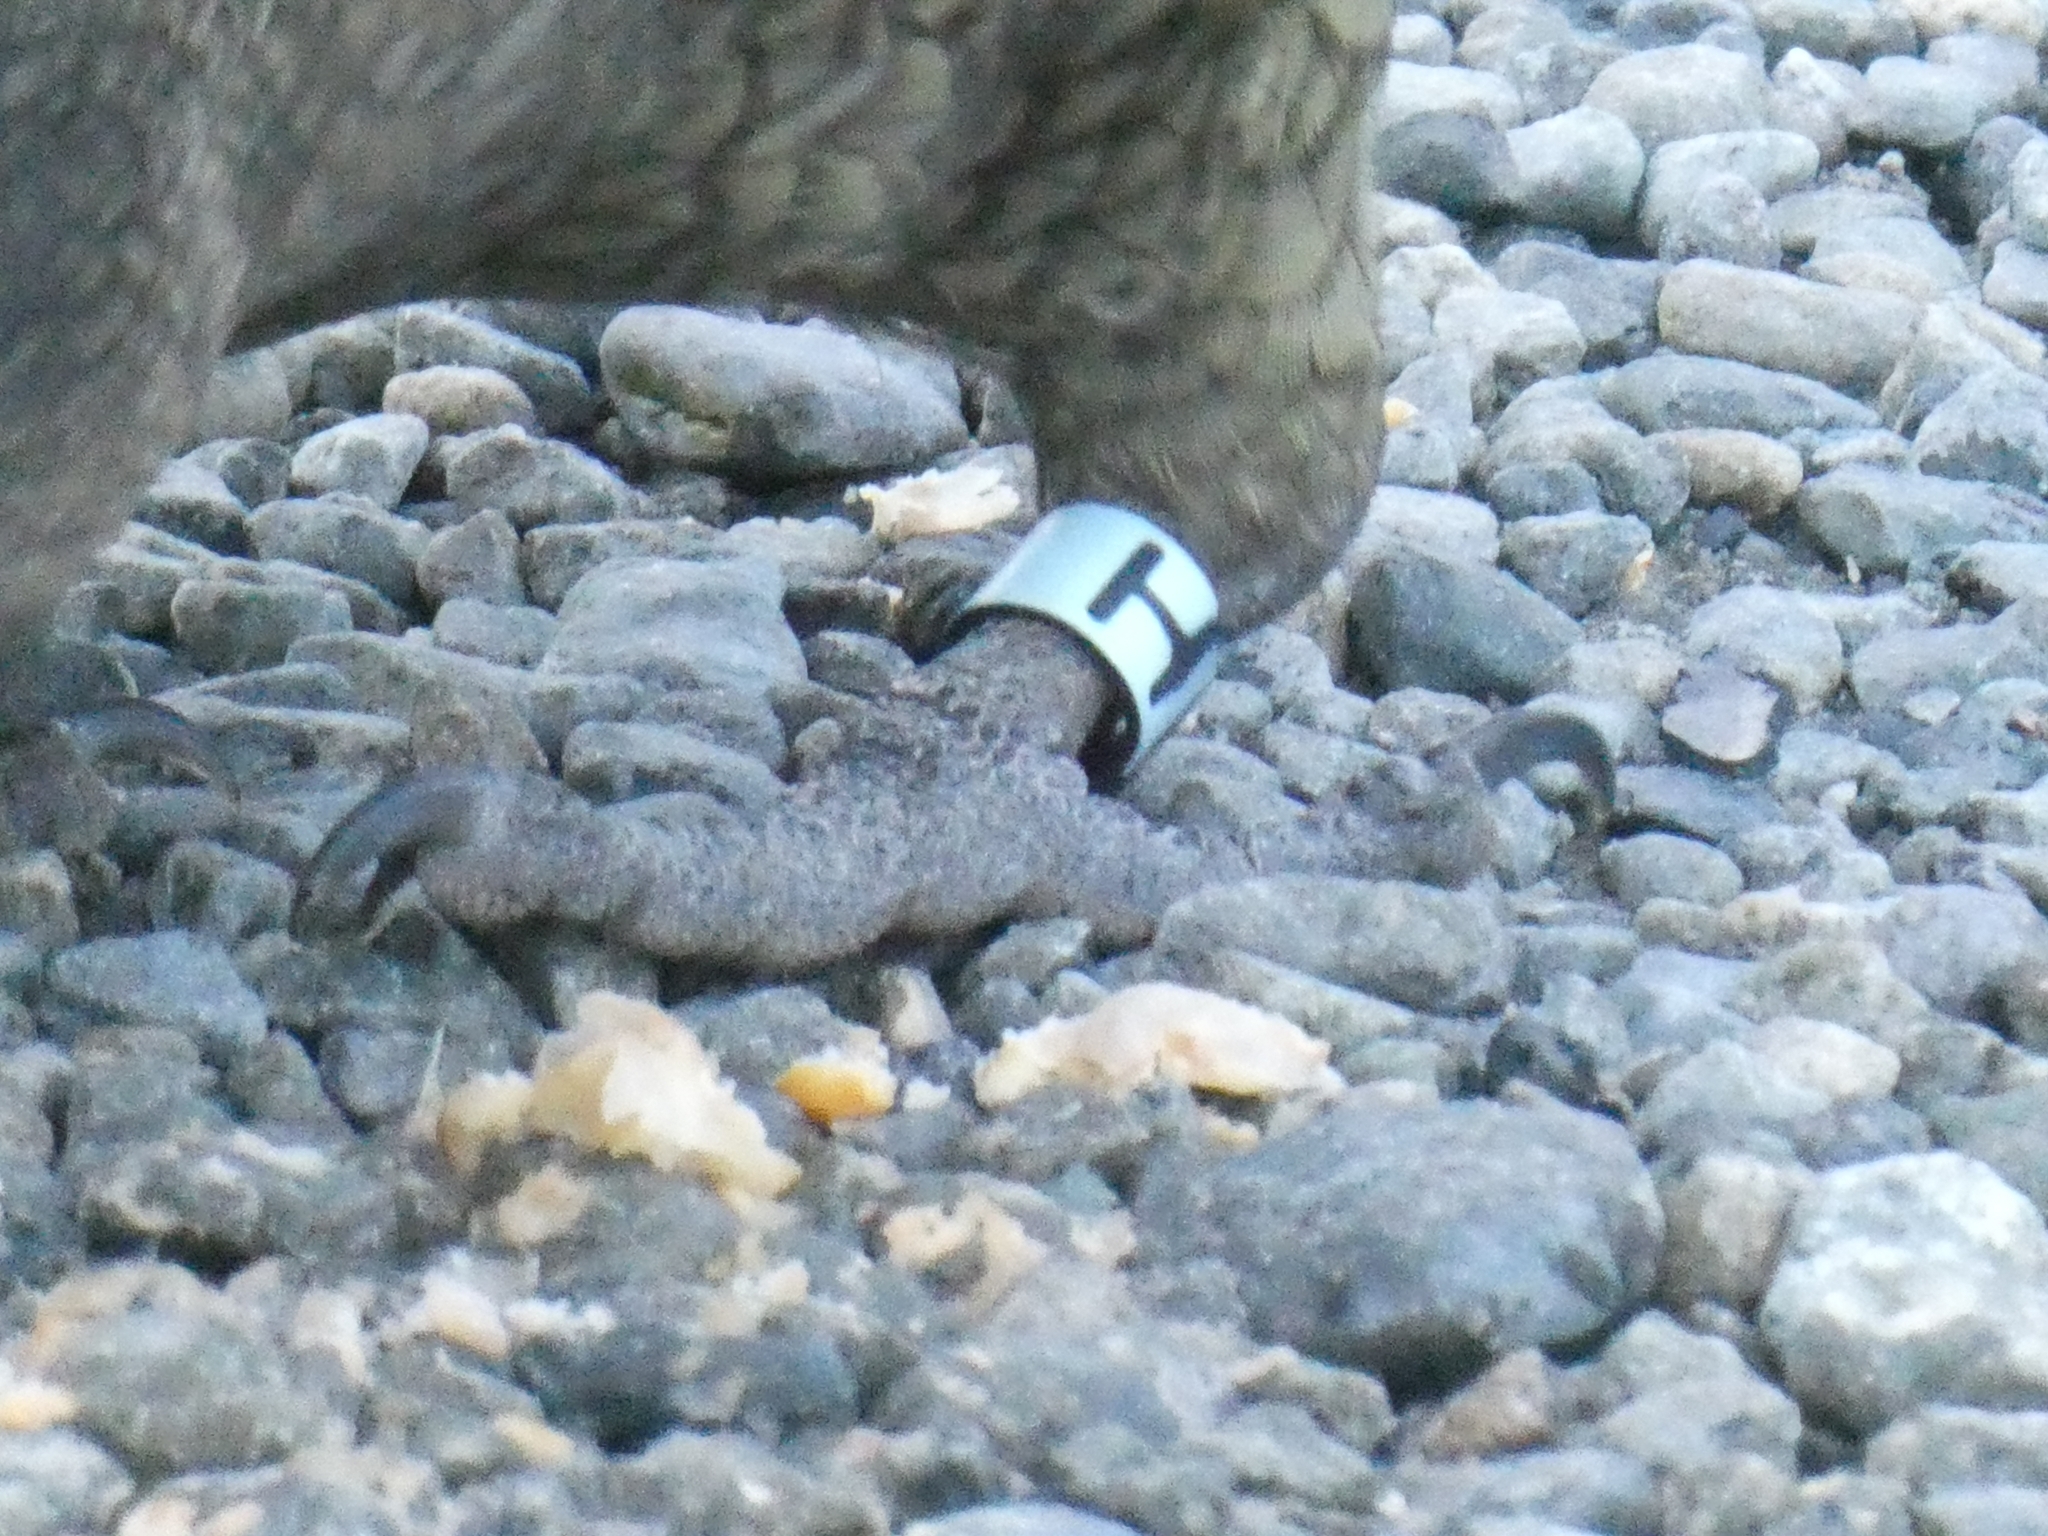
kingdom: Animalia
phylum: Chordata
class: Aves
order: Psittaciformes
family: Psittacidae
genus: Nestor
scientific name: Nestor notabilis
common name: Kea
